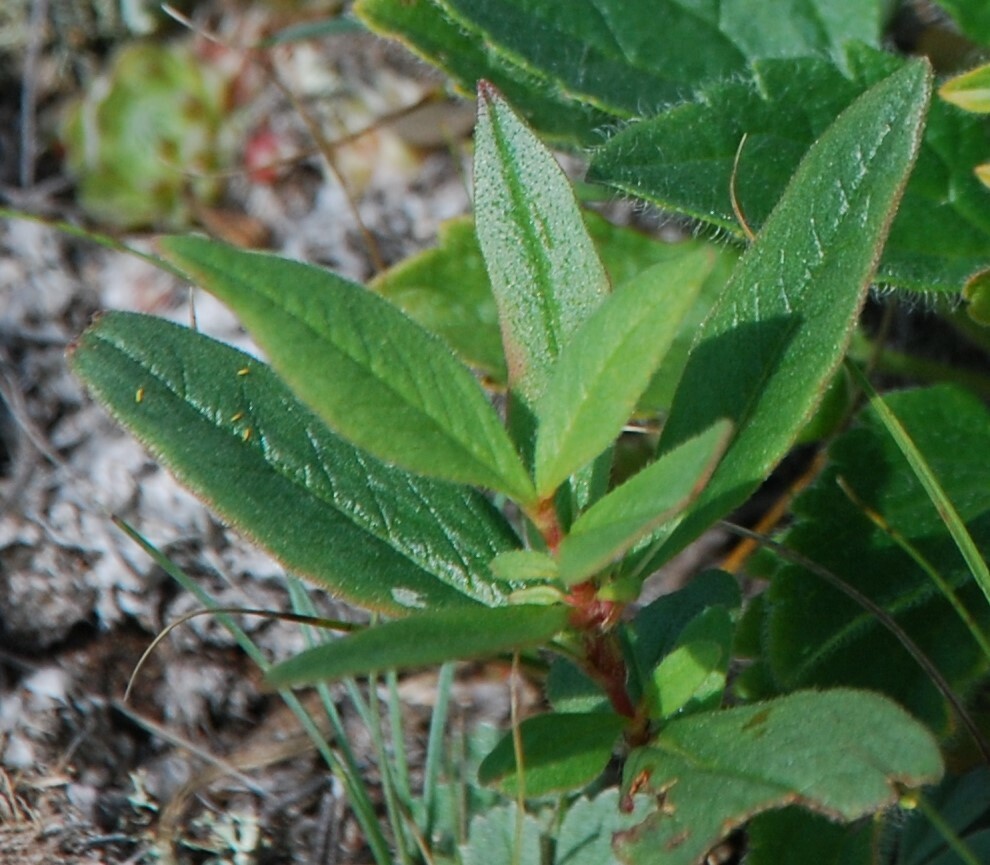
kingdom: Plantae
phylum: Tracheophyta
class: Magnoliopsida
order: Caryophyllales
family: Polygonaceae
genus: Koenigia
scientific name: Koenigia alpina
